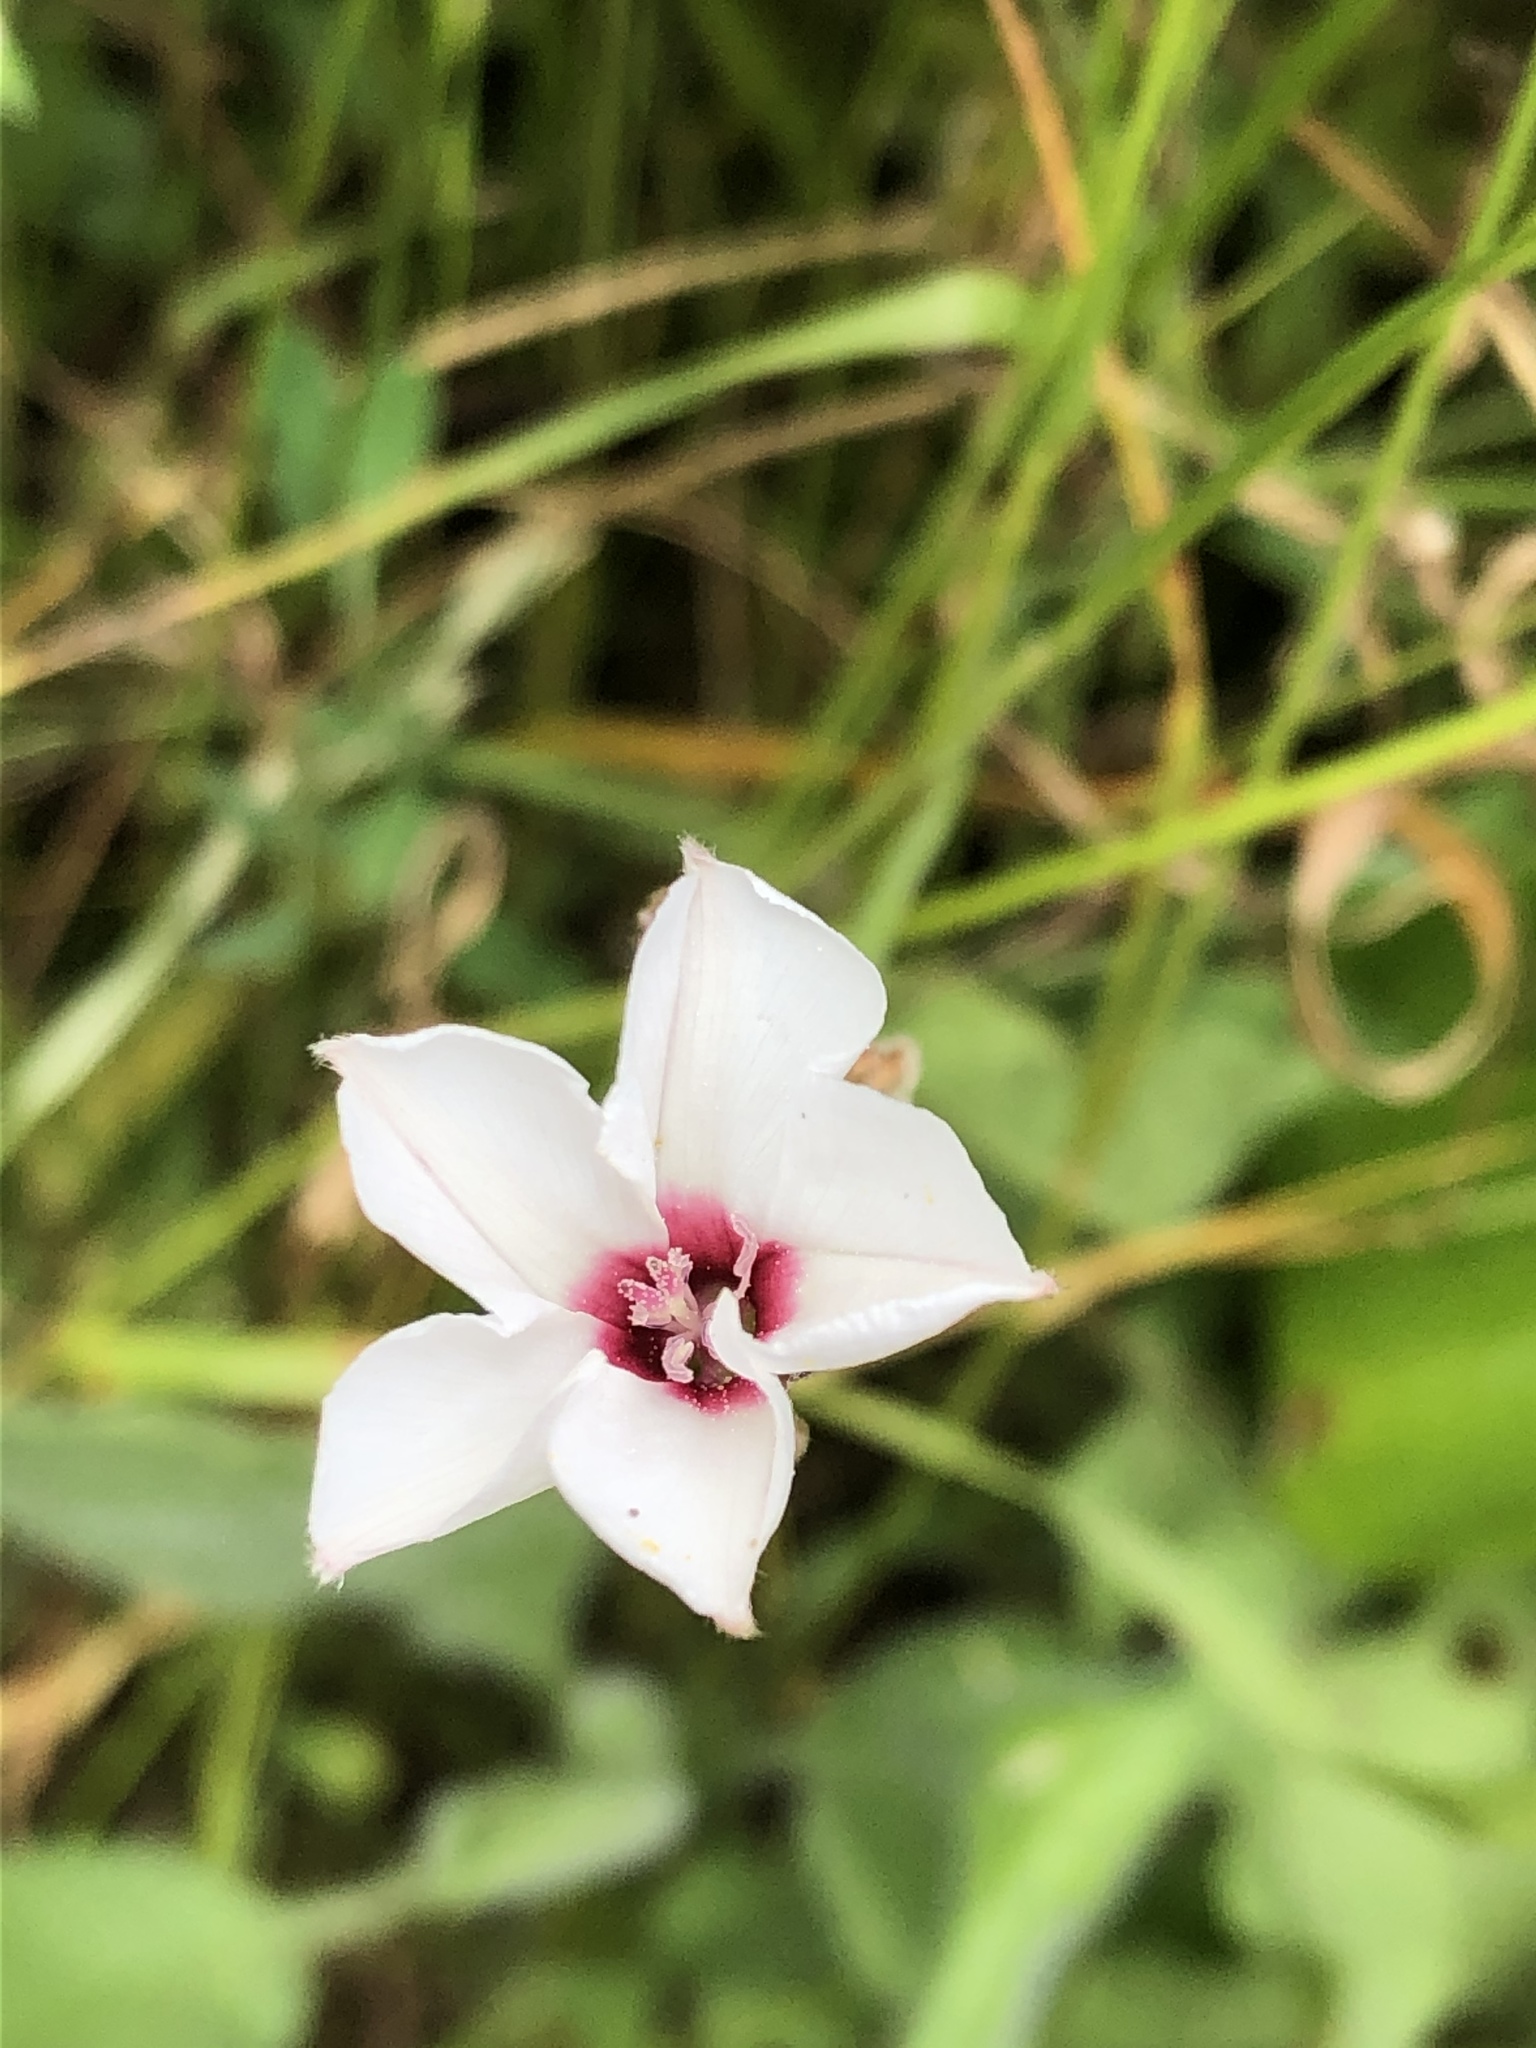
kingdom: Plantae
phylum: Tracheophyta
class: Magnoliopsida
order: Solanales
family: Convolvulaceae
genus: Convolvulus
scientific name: Convolvulus equitans
